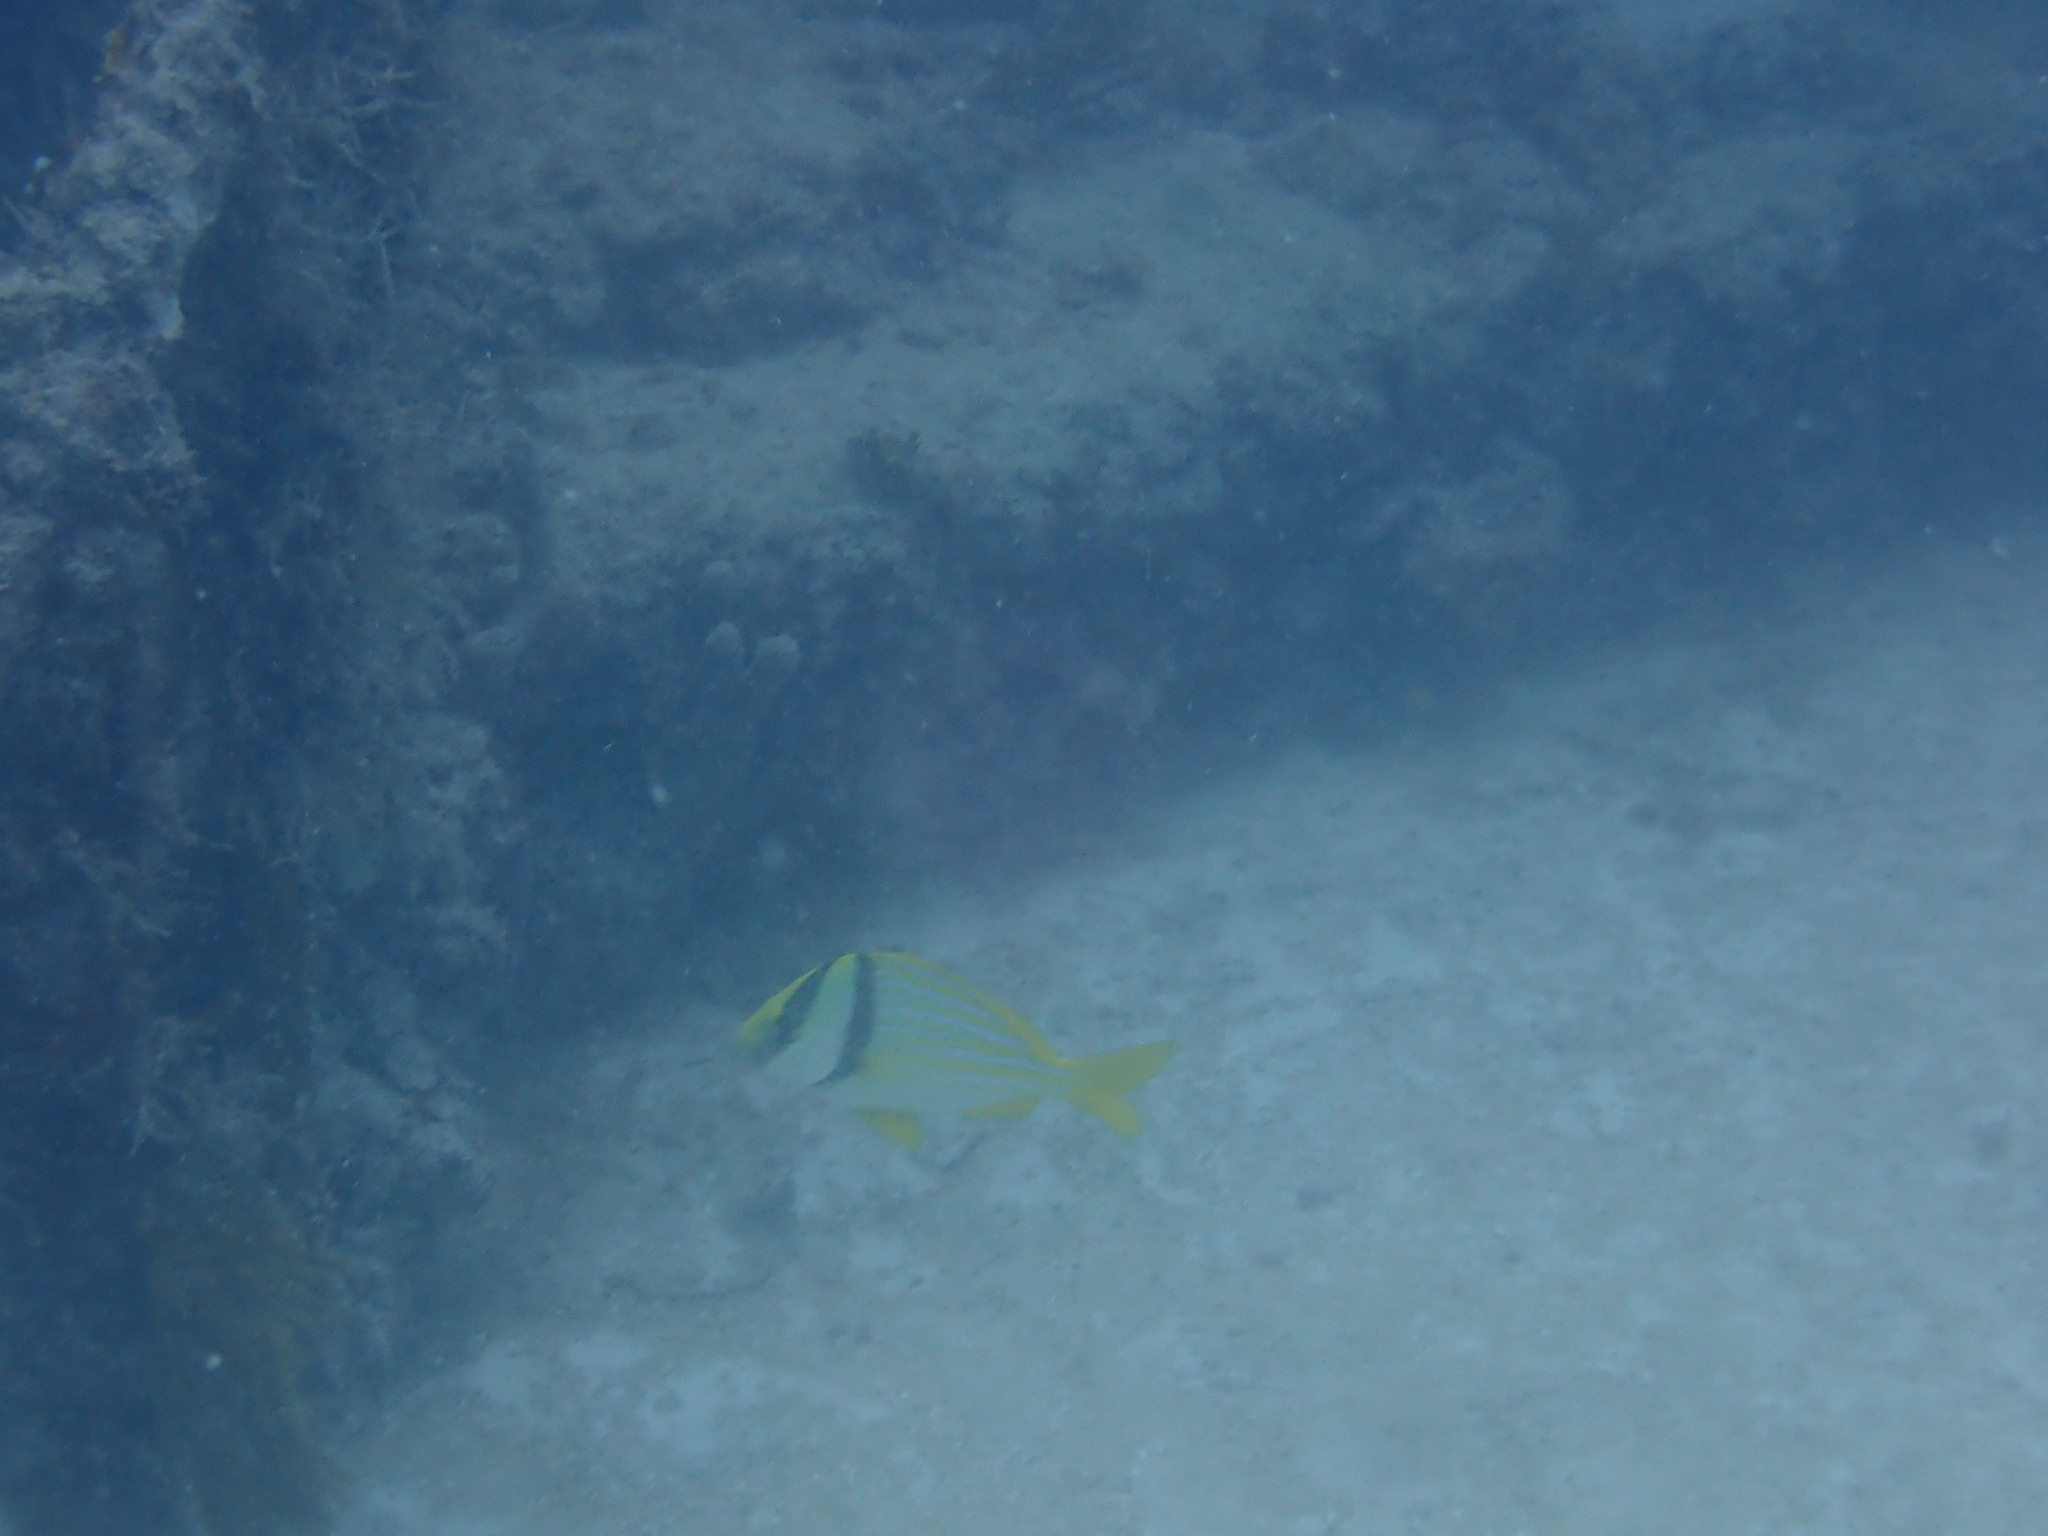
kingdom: Animalia
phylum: Chordata
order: Perciformes
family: Haemulidae
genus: Anisotremus
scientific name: Anisotremus virginicus
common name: Porkfish
